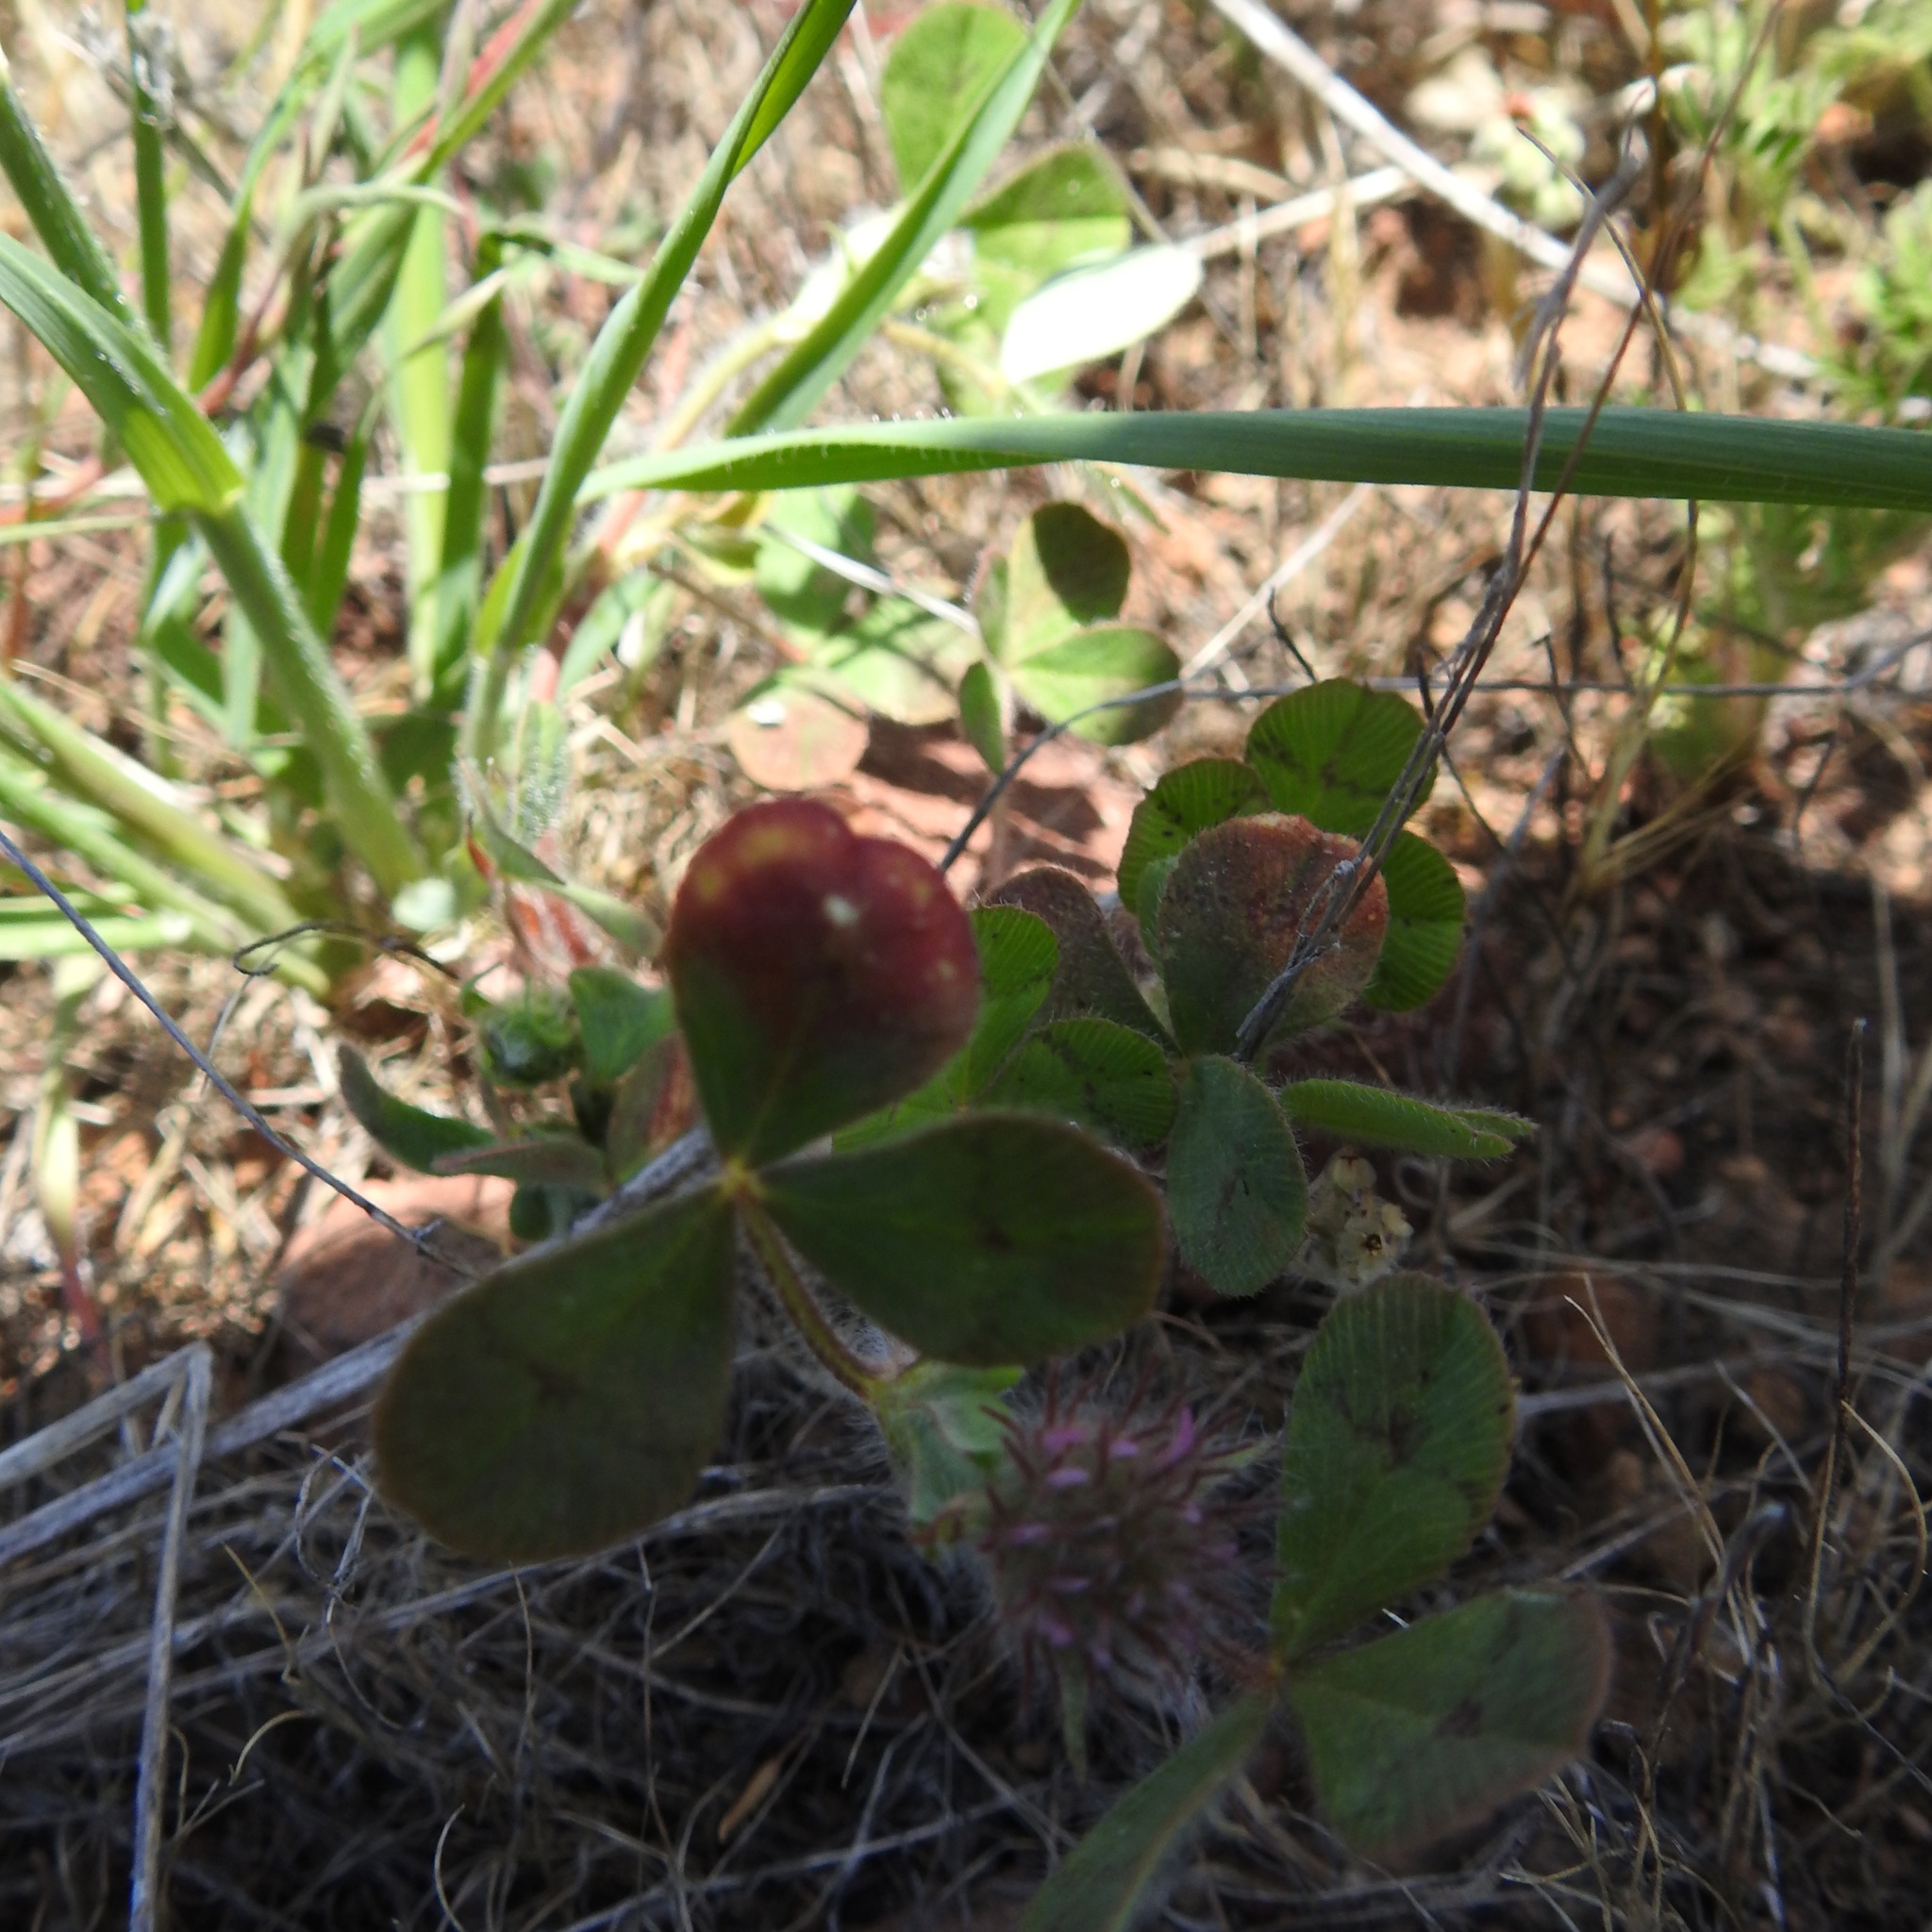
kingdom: Plantae
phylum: Tracheophyta
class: Magnoliopsida
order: Fabales
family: Fabaceae
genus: Trifolium
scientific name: Trifolium hirtum
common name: Rose clover
